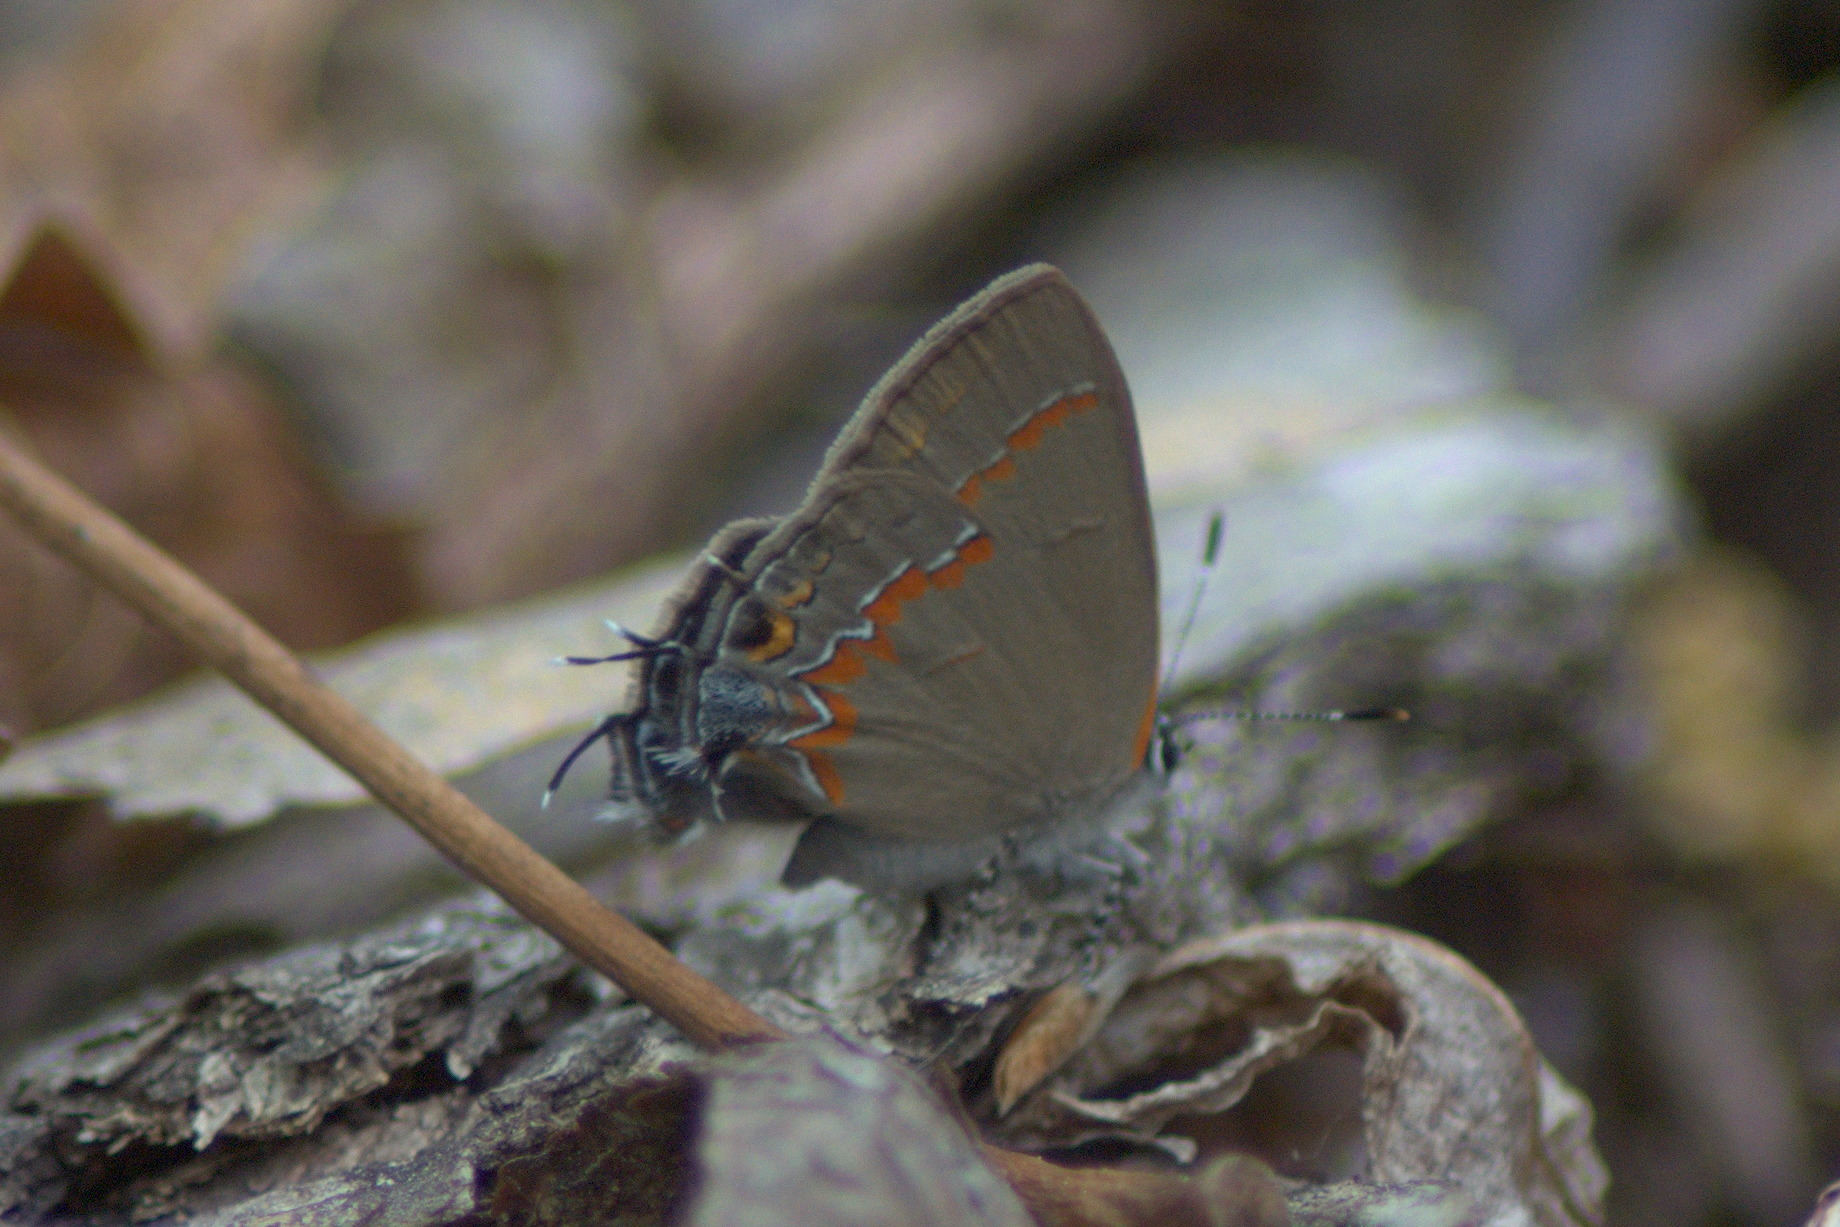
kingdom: Animalia
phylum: Arthropoda
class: Insecta
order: Lepidoptera
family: Lycaenidae
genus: Calycopis
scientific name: Calycopis cecrops
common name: Red-banded hairstreak
